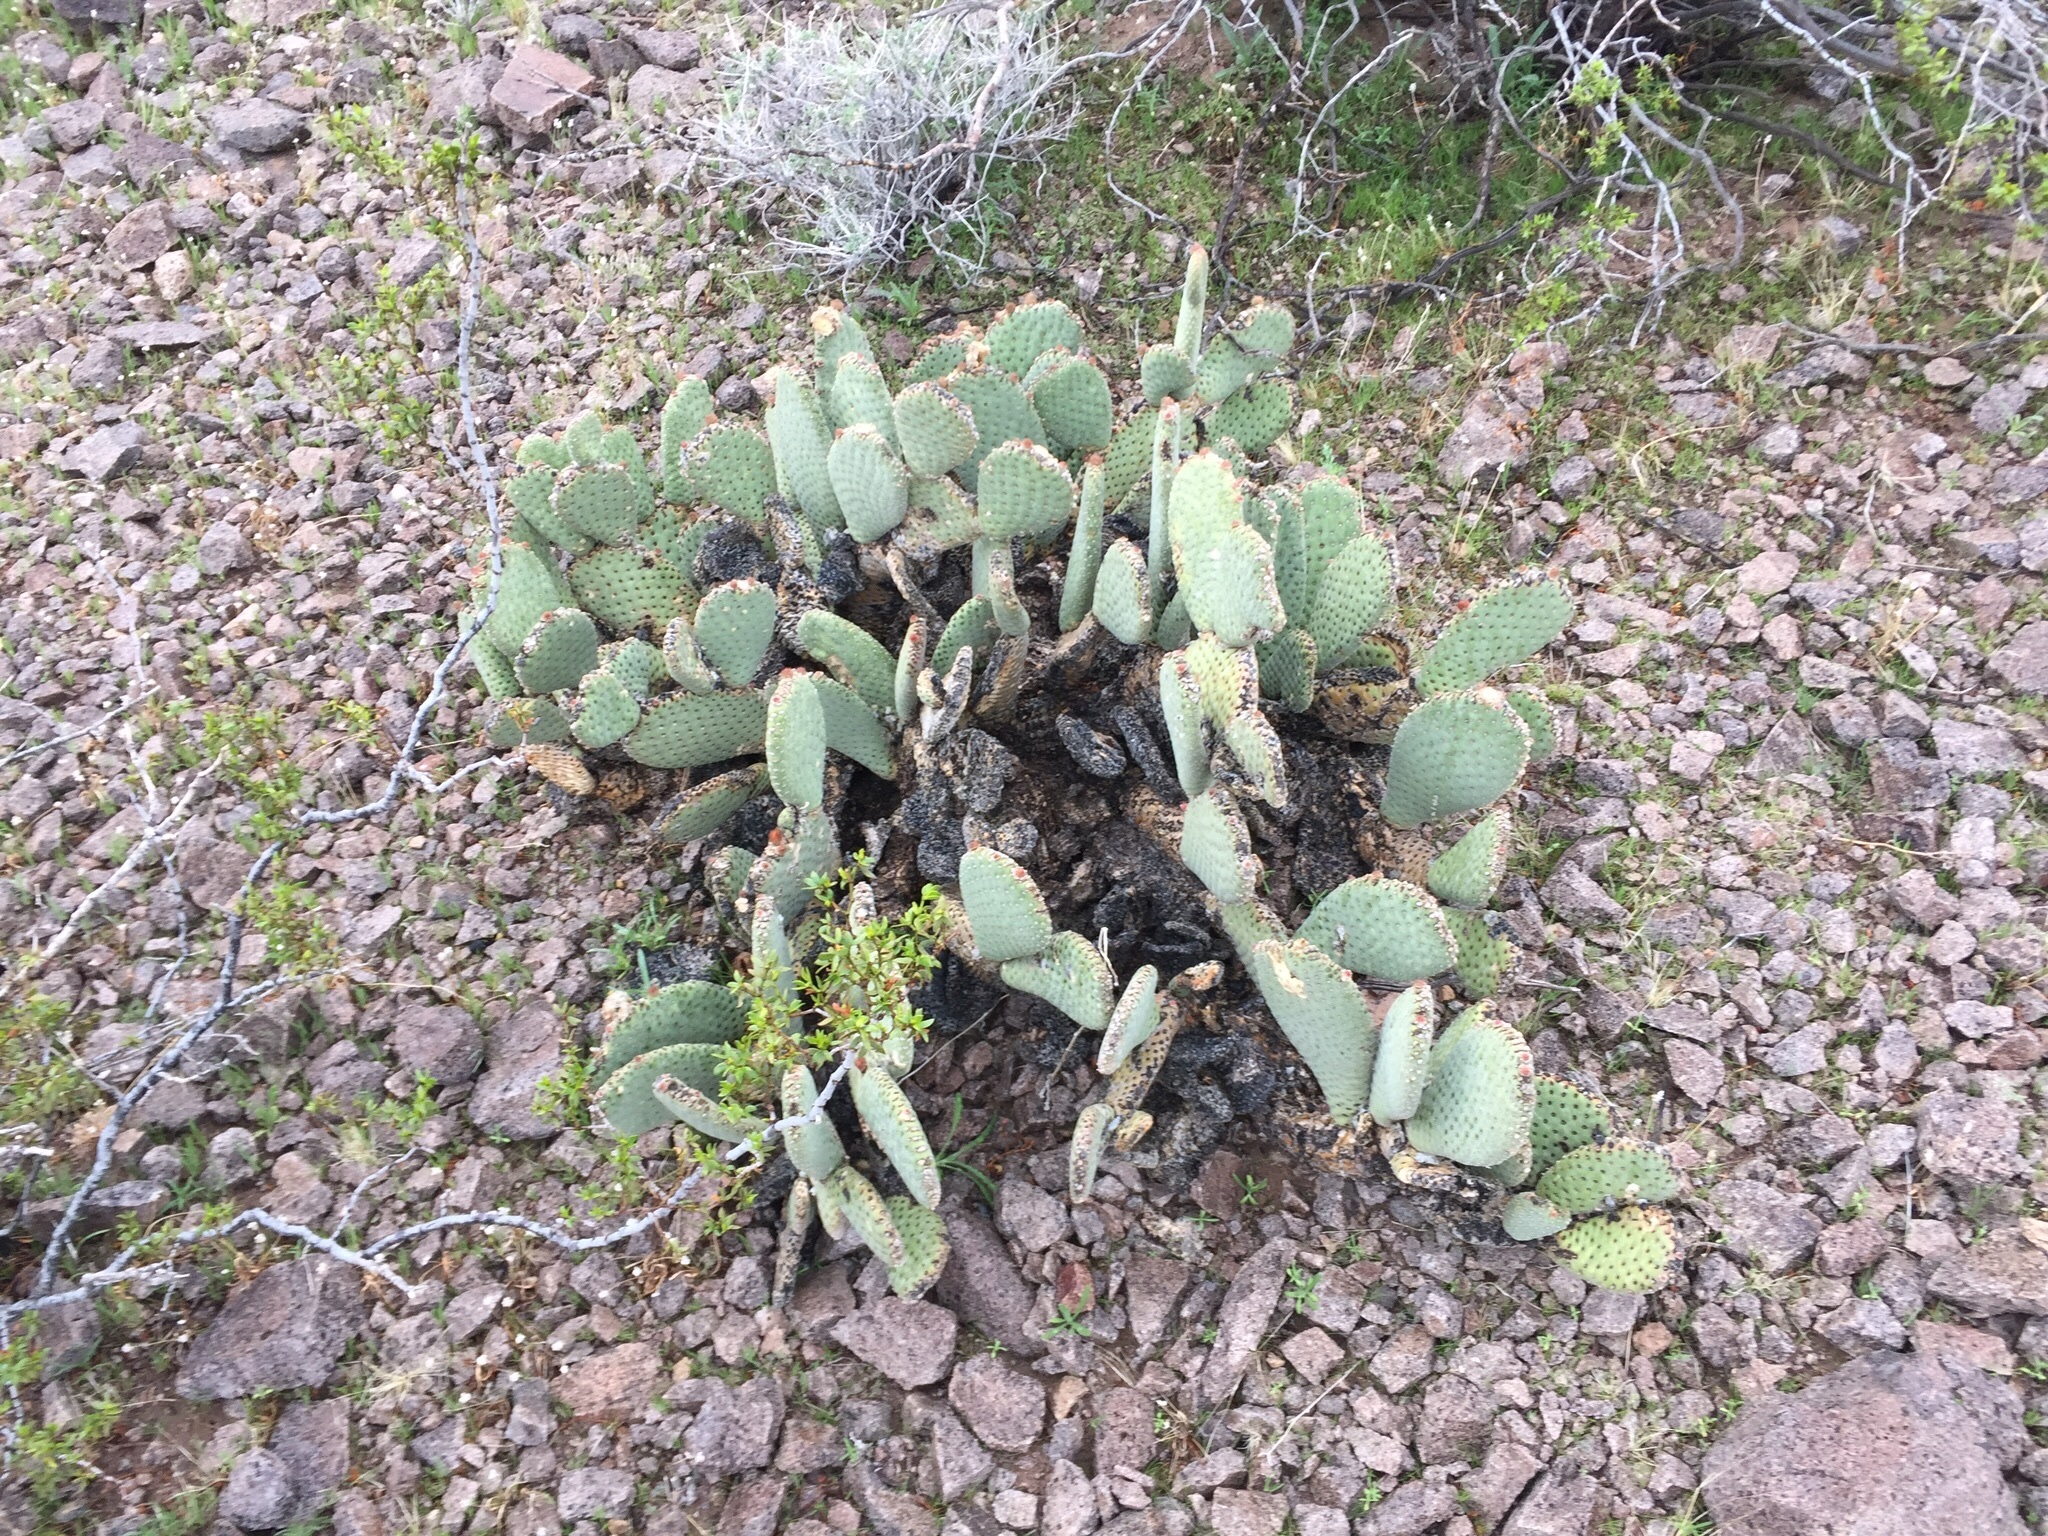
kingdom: Plantae
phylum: Tracheophyta
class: Magnoliopsida
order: Caryophyllales
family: Cactaceae
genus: Opuntia
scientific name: Opuntia basilaris
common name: Beavertail prickly-pear
